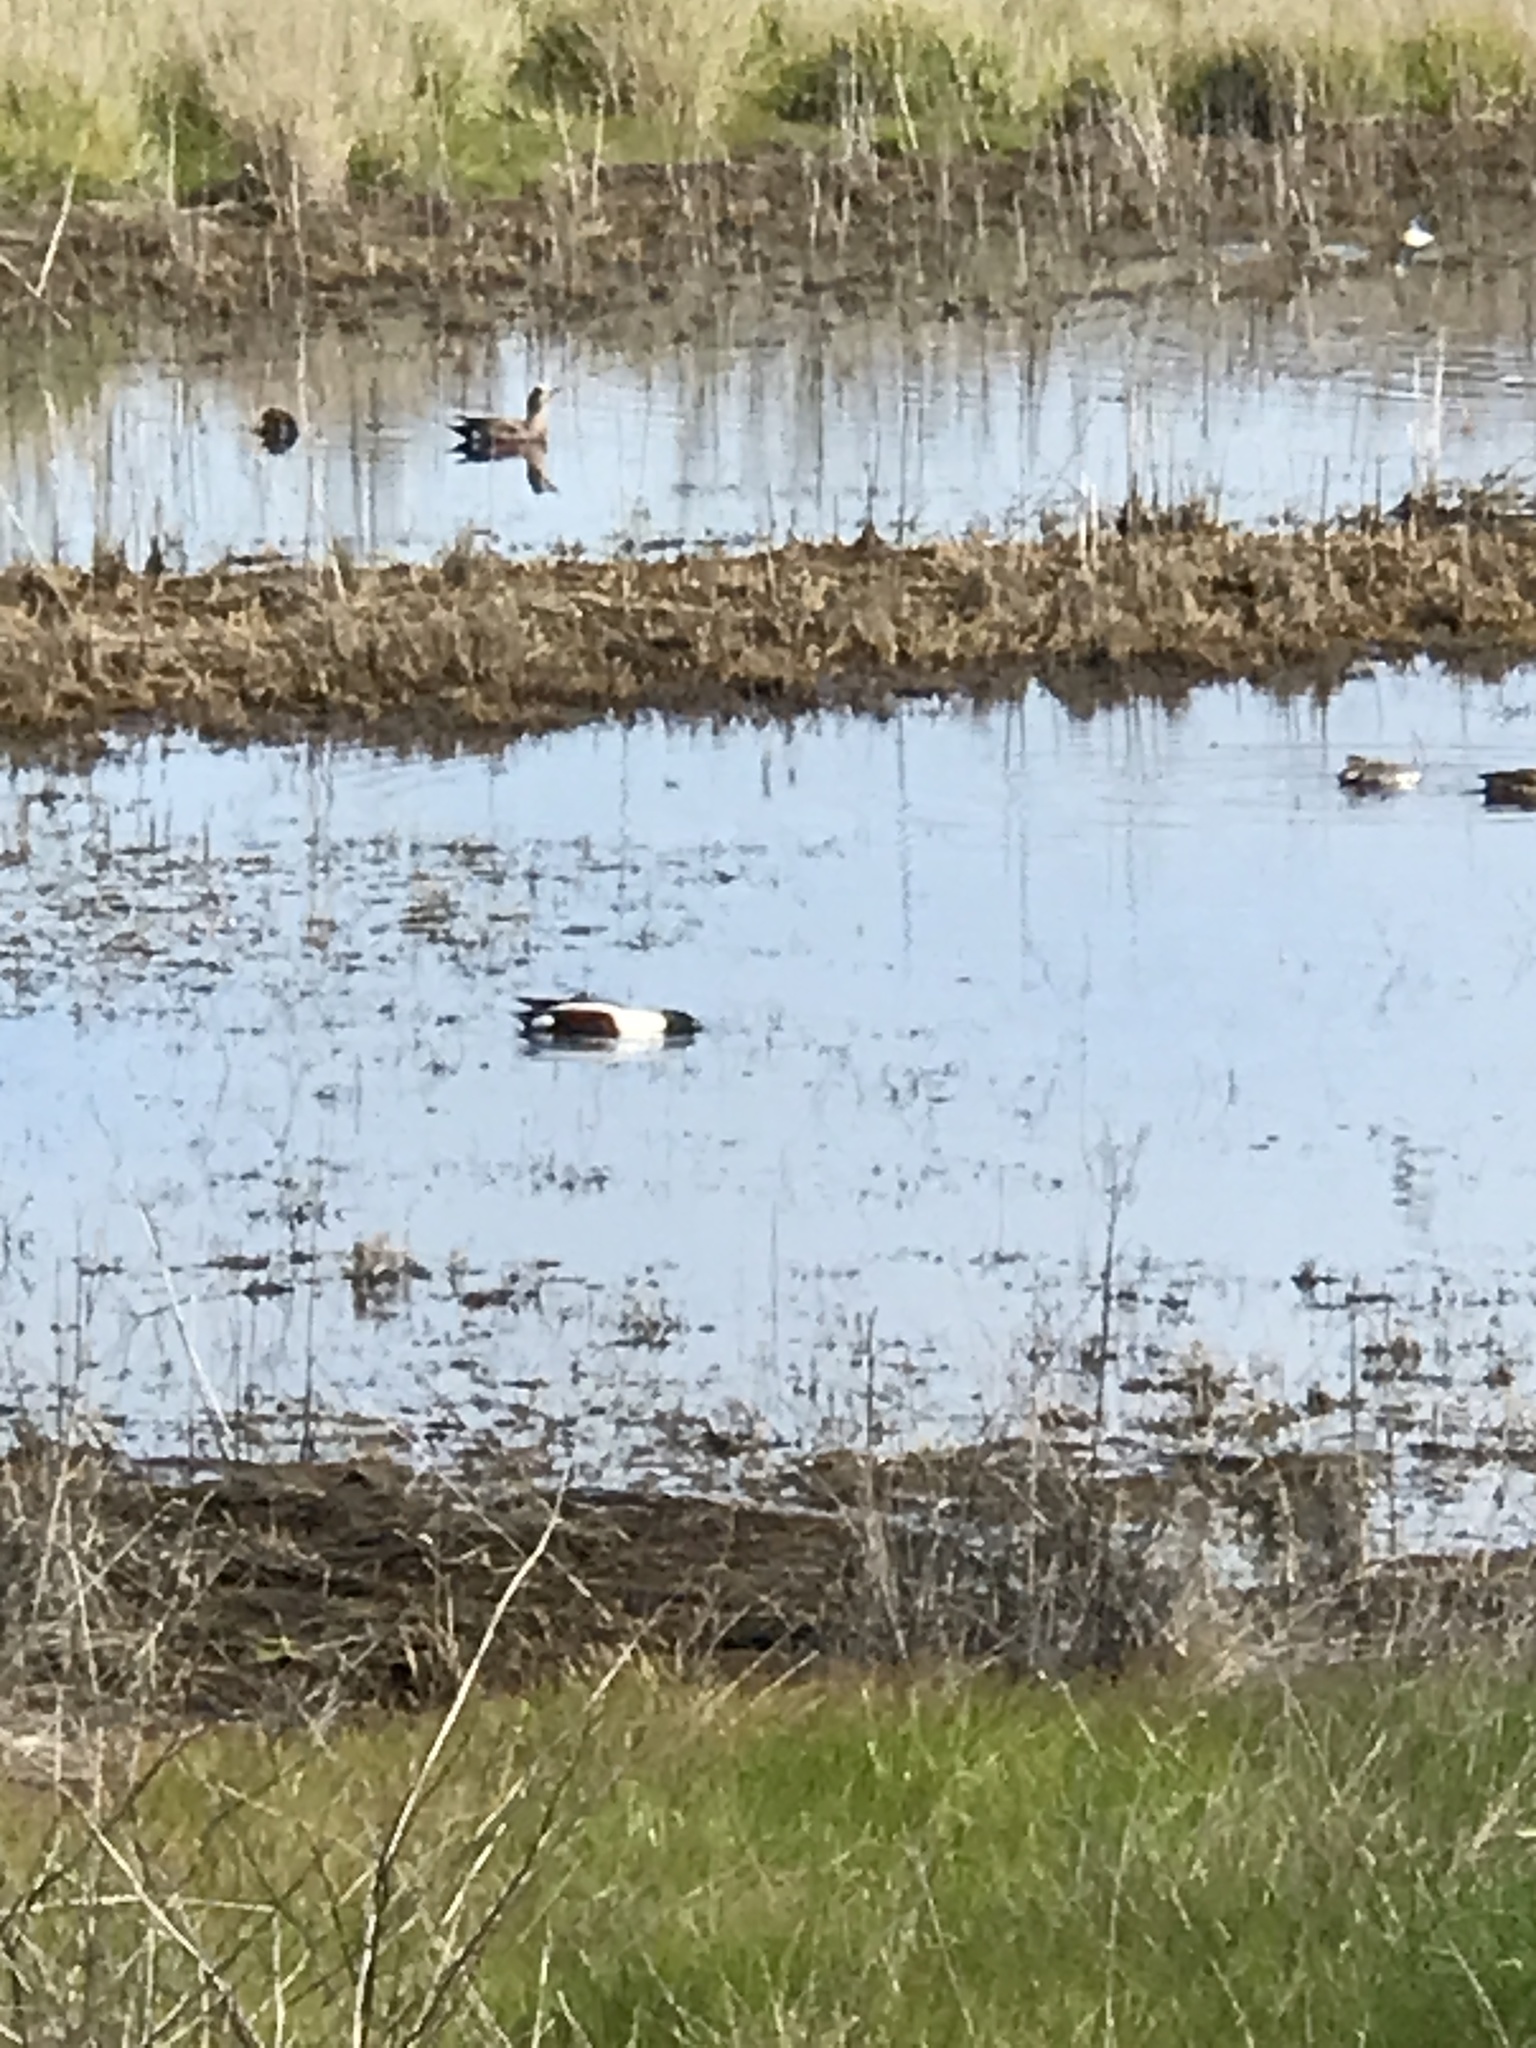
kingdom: Animalia
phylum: Chordata
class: Aves
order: Anseriformes
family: Anatidae
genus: Spatula
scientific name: Spatula clypeata
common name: Northern shoveler
